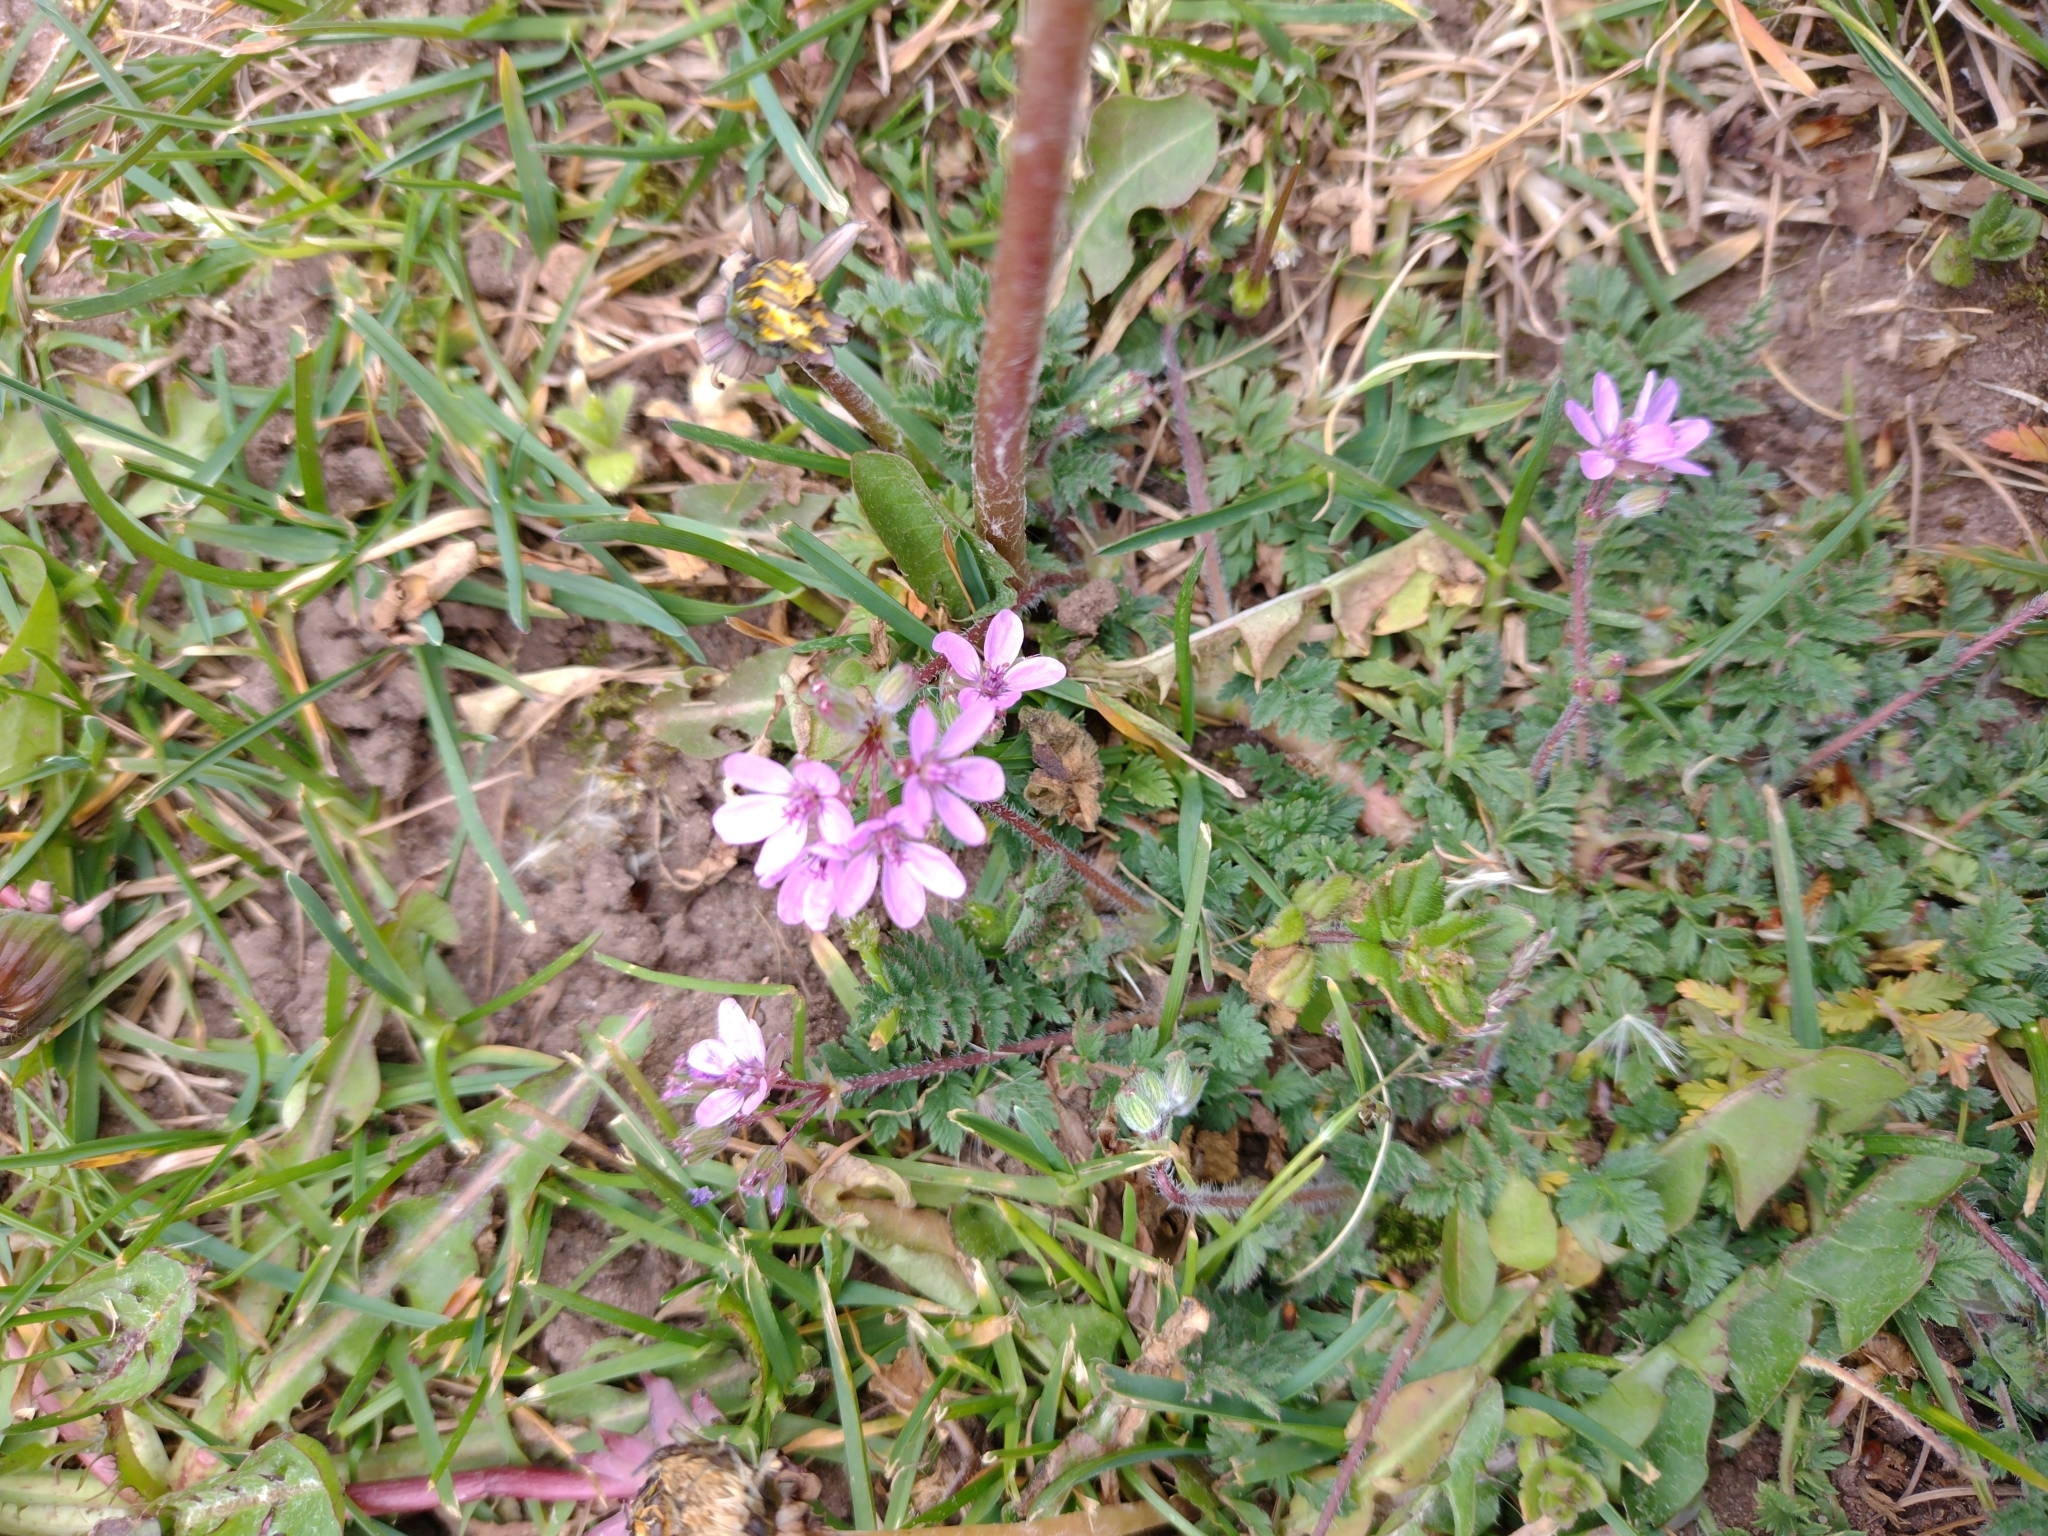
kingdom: Plantae
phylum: Tracheophyta
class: Magnoliopsida
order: Geraniales
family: Geraniaceae
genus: Erodium
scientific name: Erodium cicutarium
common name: Common stork's-bill
